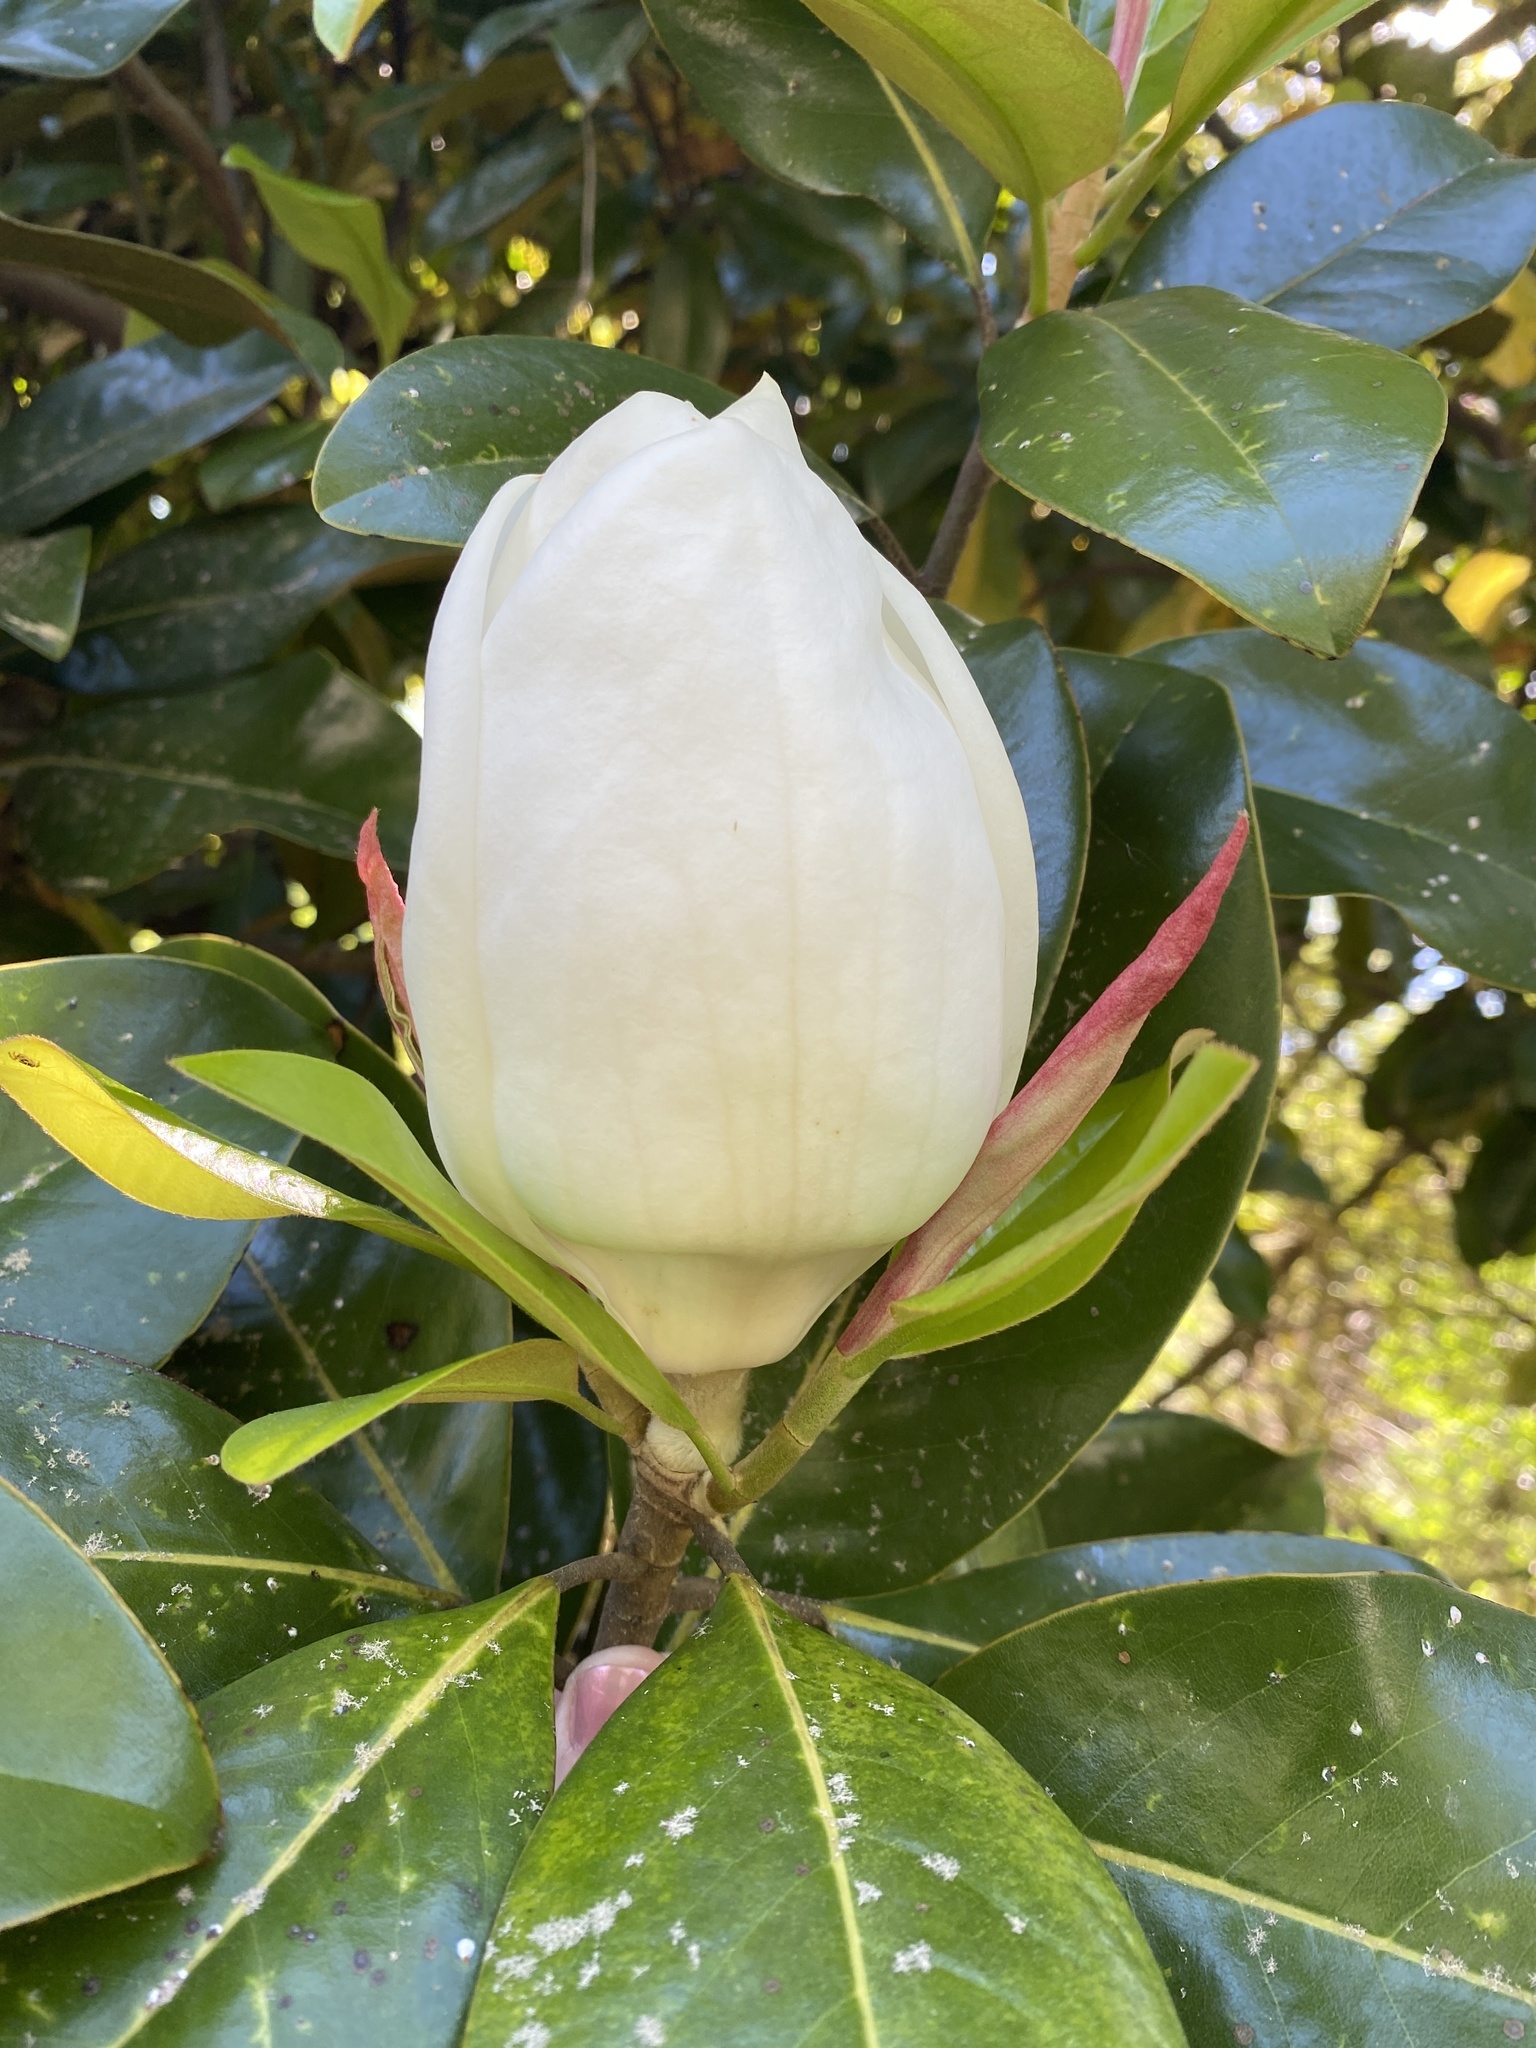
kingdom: Plantae
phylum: Tracheophyta
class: Magnoliopsida
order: Magnoliales
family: Magnoliaceae
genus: Magnolia
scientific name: Magnolia grandiflora
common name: Southern magnolia
